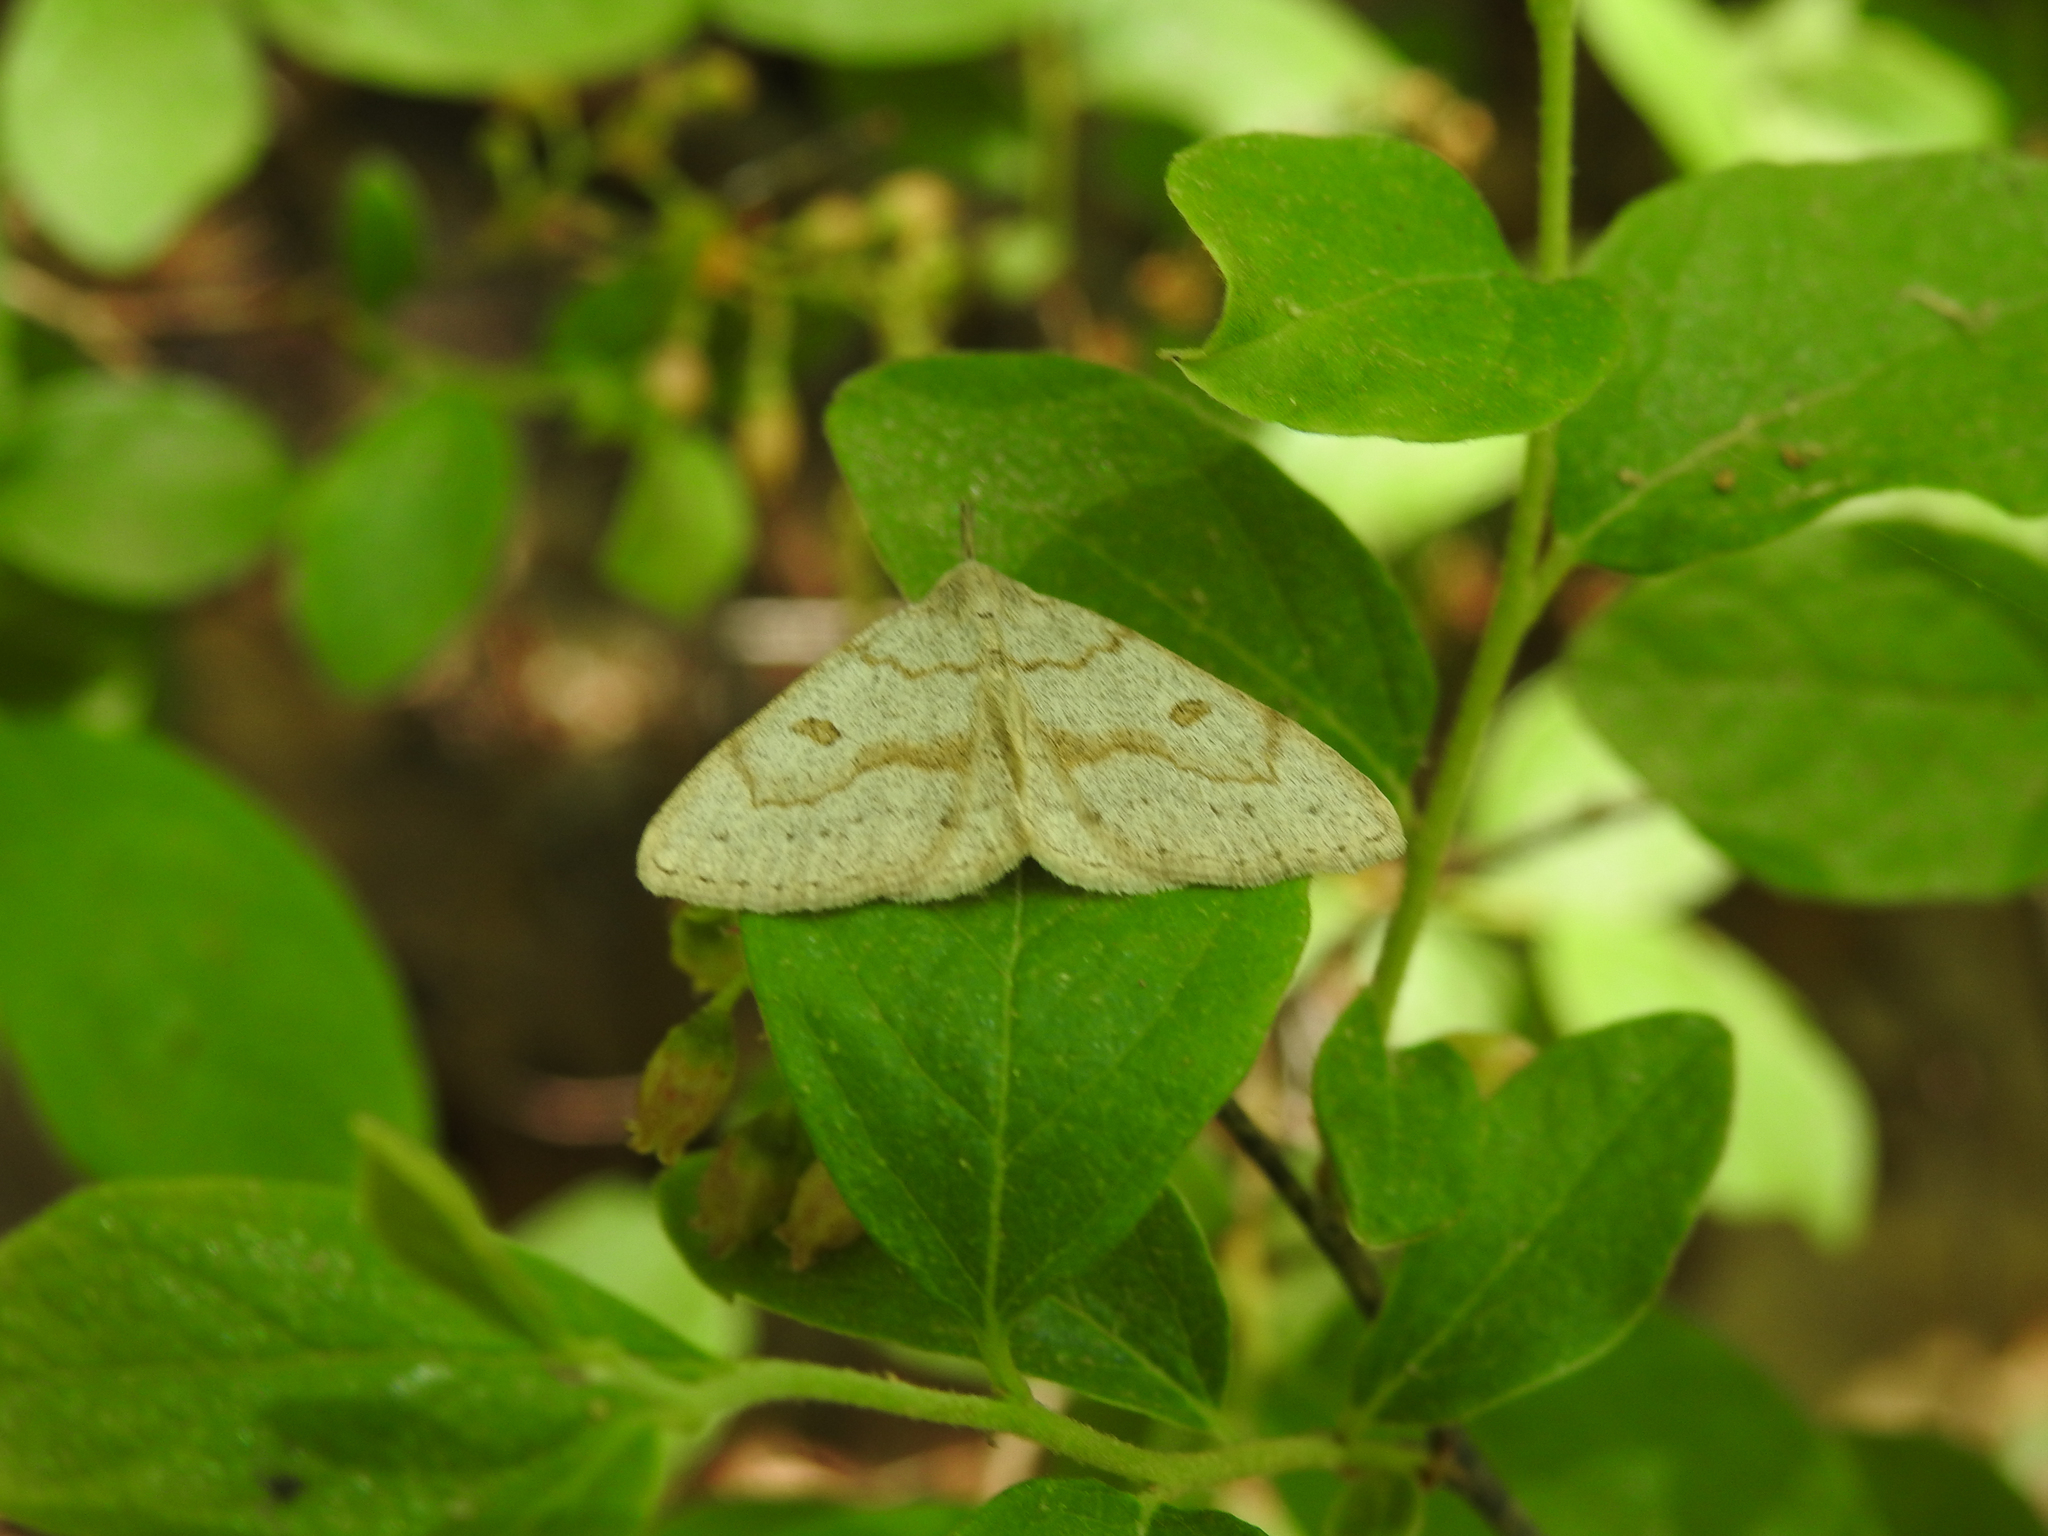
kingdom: Animalia
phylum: Arthropoda
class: Insecta
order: Lepidoptera
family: Erebidae
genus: Macrochilo
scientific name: Macrochilo morbidalis
